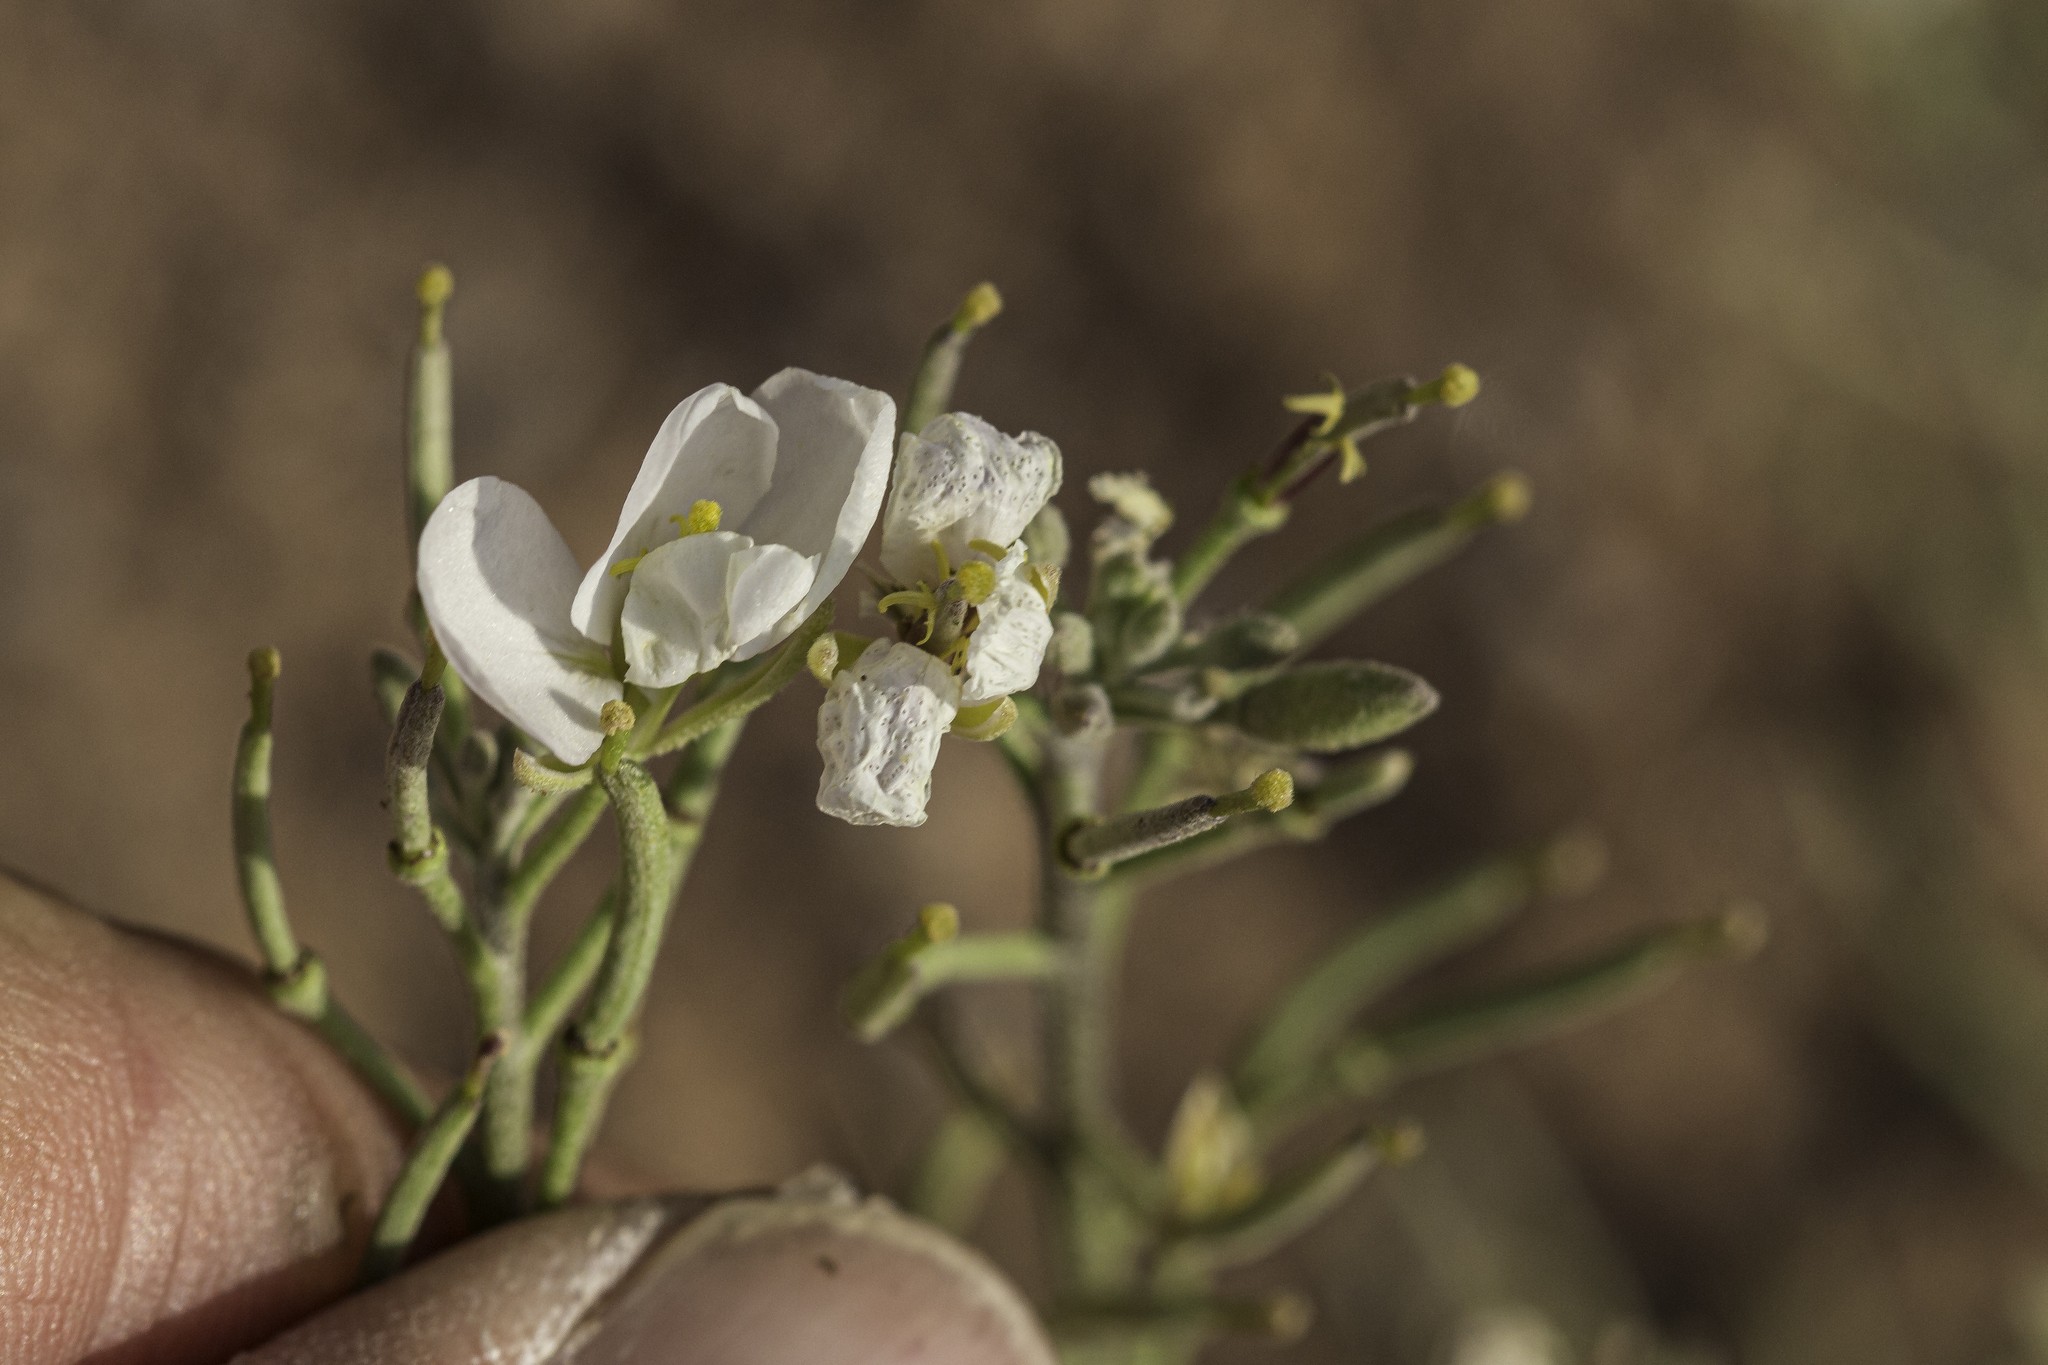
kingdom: Plantae
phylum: Tracheophyta
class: Magnoliopsida
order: Brassicales
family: Brassicaceae
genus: Nerisyrenia
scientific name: Nerisyrenia linearifolia
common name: White sands fan mustard
